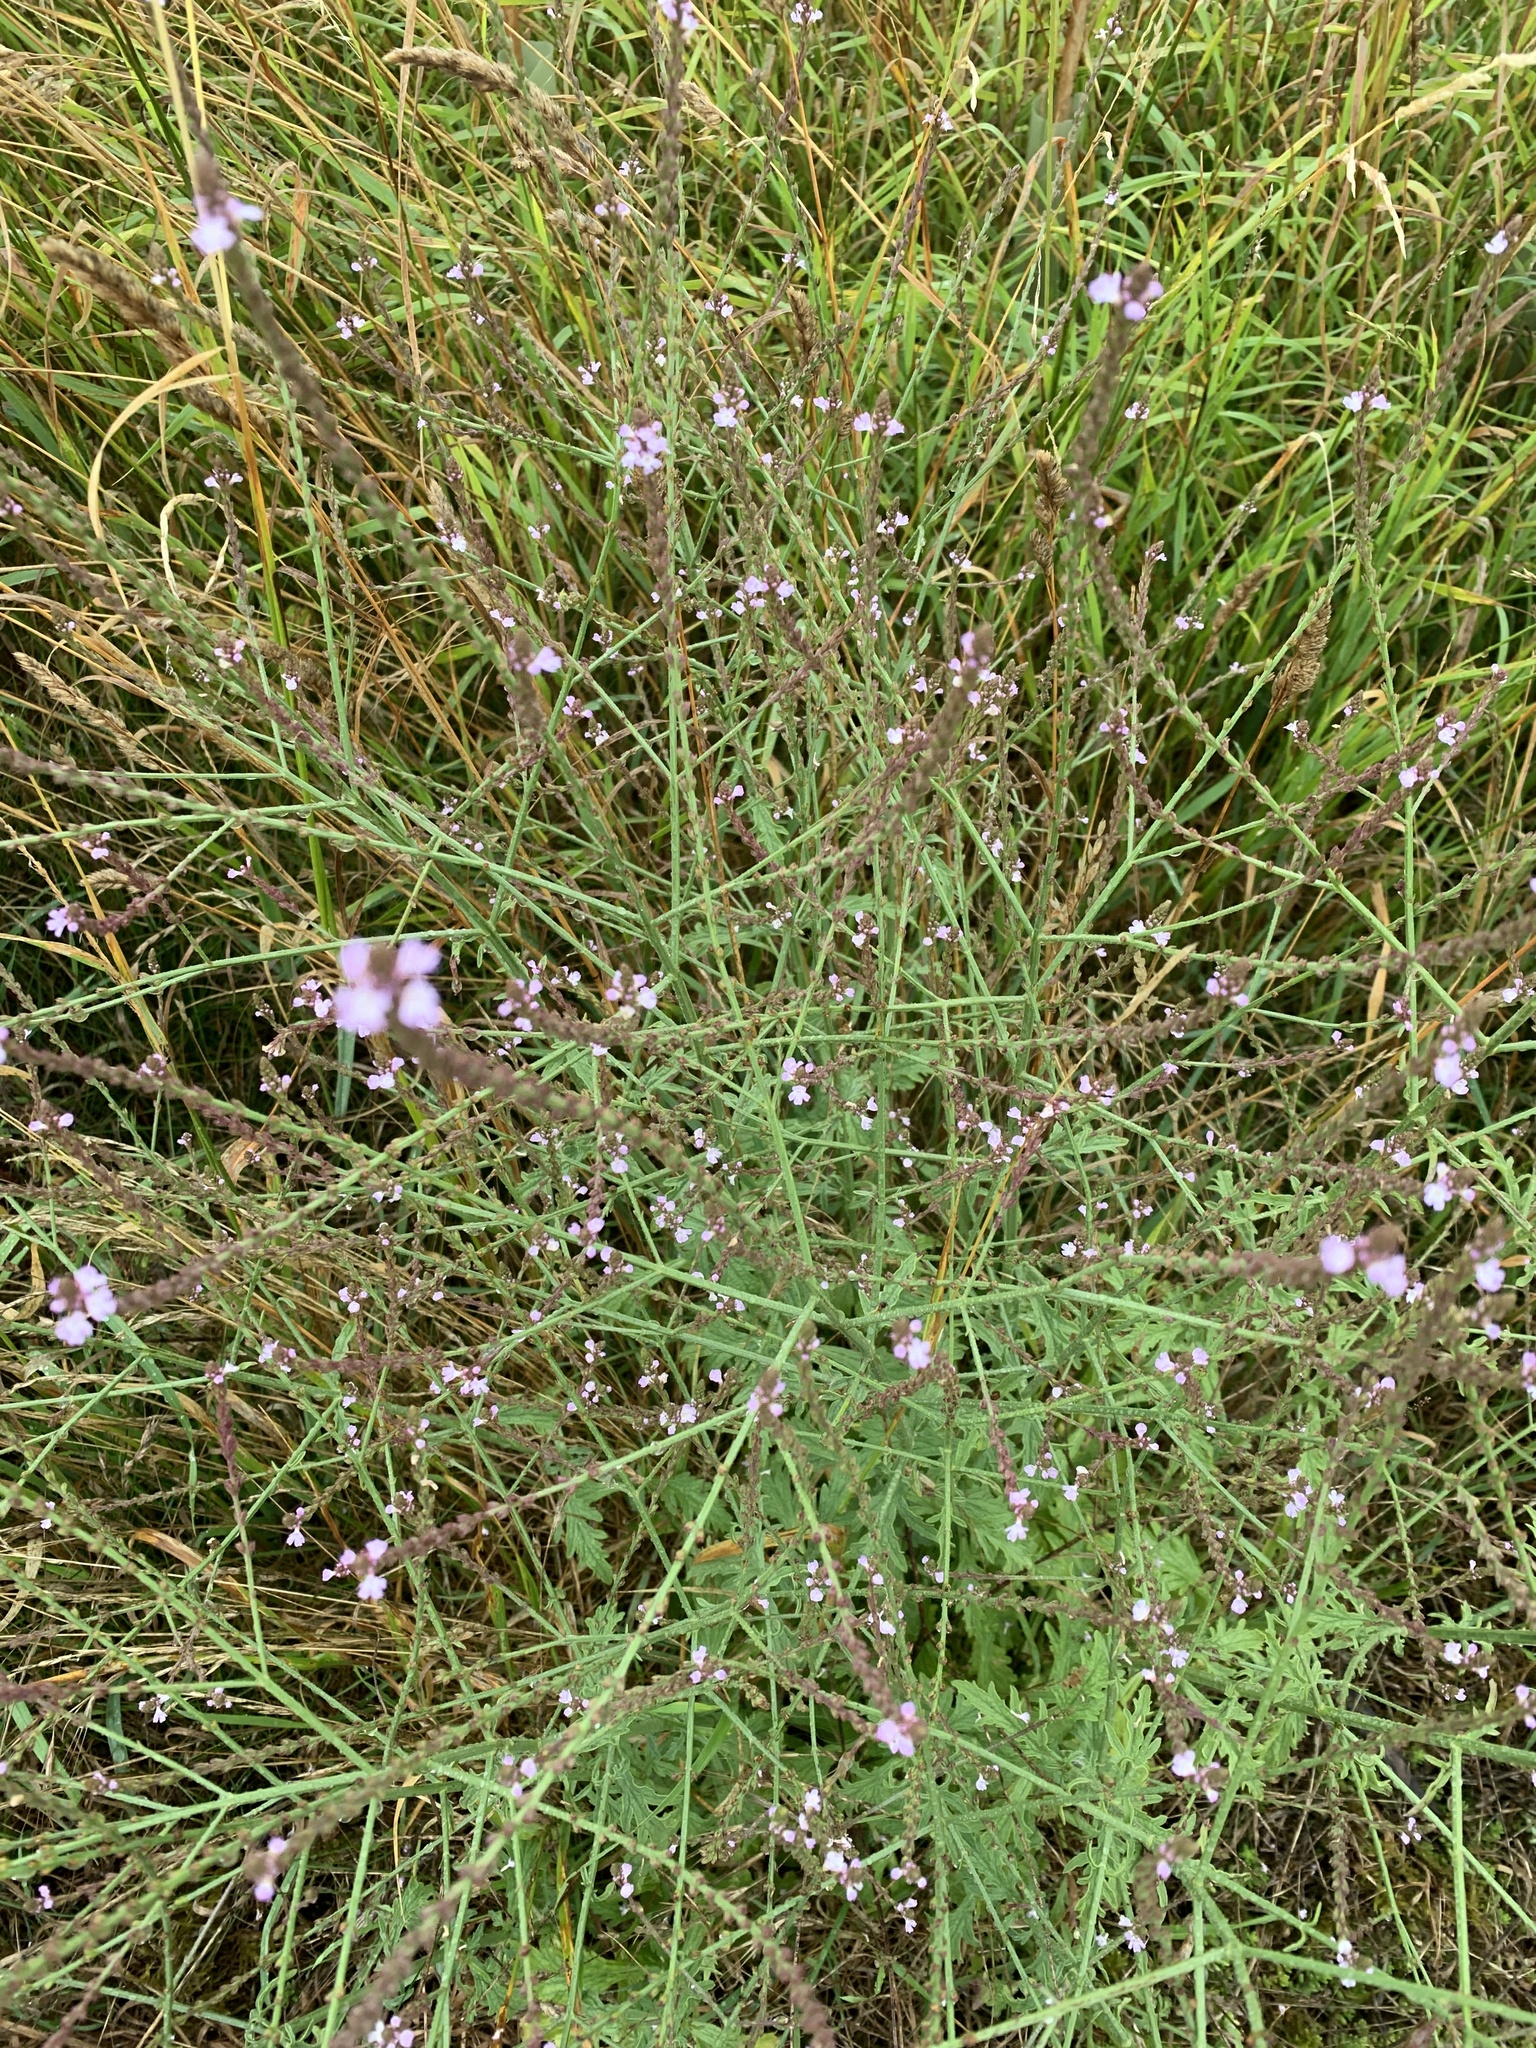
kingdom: Plantae
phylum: Tracheophyta
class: Magnoliopsida
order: Lamiales
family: Verbenaceae
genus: Verbena
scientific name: Verbena officinalis
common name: Vervain
